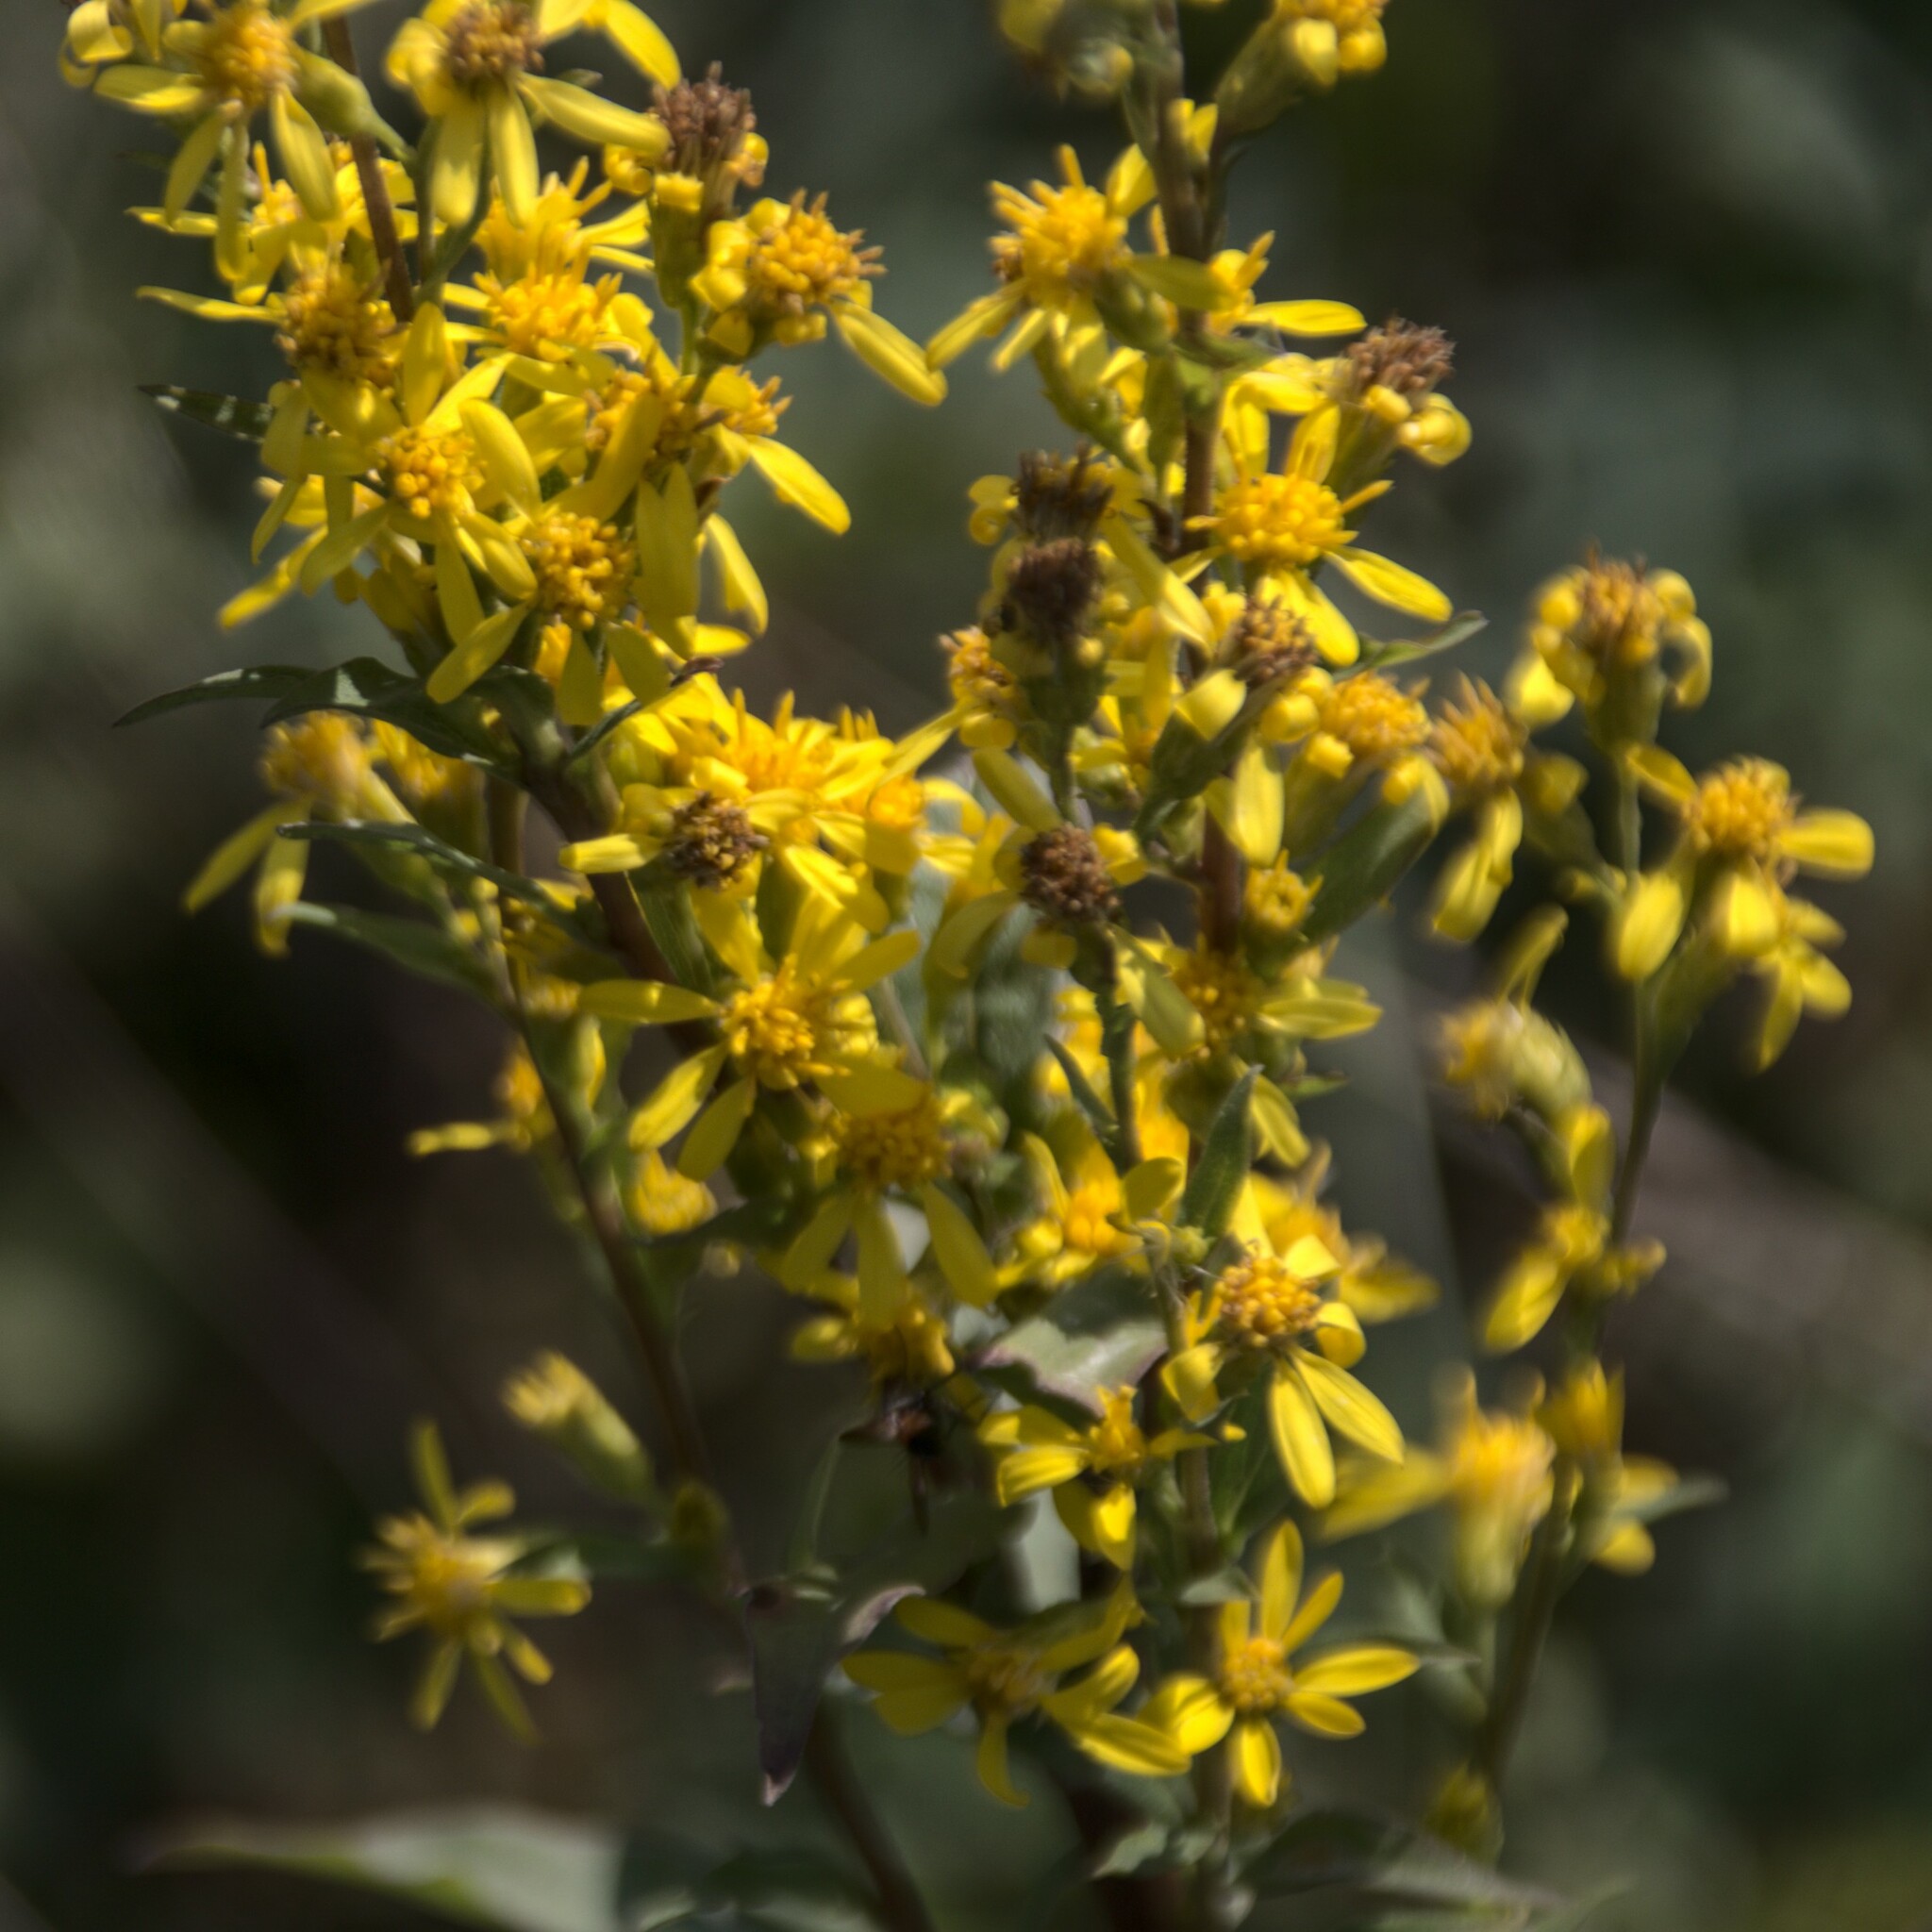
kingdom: Plantae
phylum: Tracheophyta
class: Magnoliopsida
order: Asterales
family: Asteraceae
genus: Solidago
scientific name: Solidago virgaurea
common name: Goldenrod
